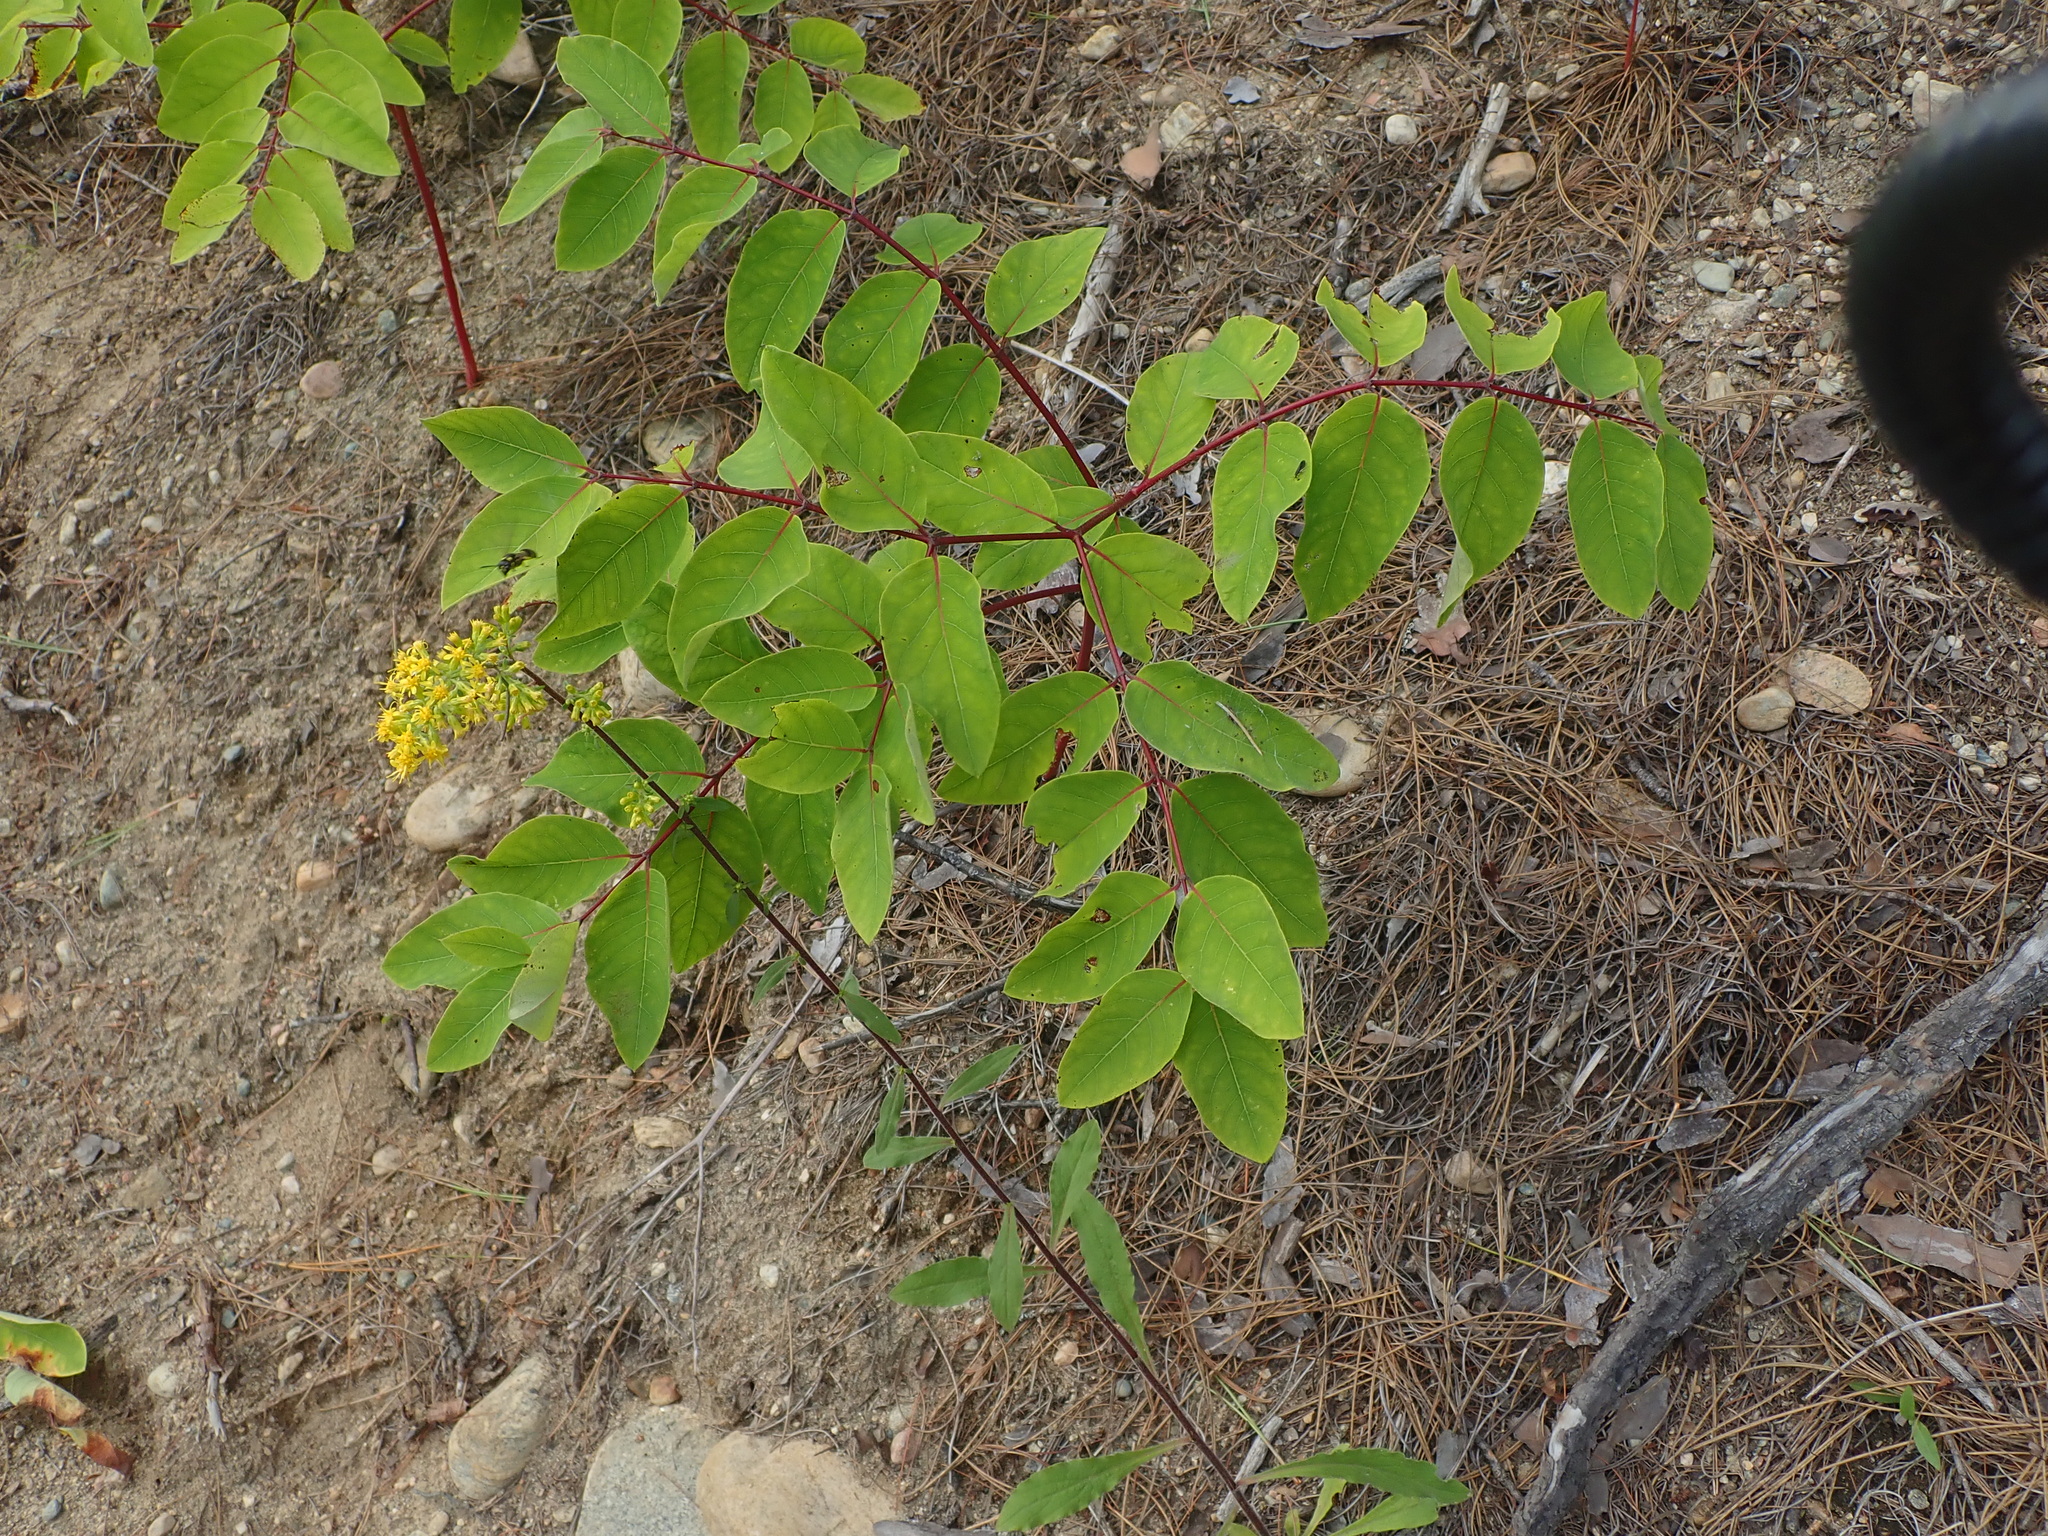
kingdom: Plantae
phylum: Tracheophyta
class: Magnoliopsida
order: Gentianales
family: Apocynaceae
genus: Apocynum
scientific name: Apocynum androsaemifolium
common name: Spreading dogbane
